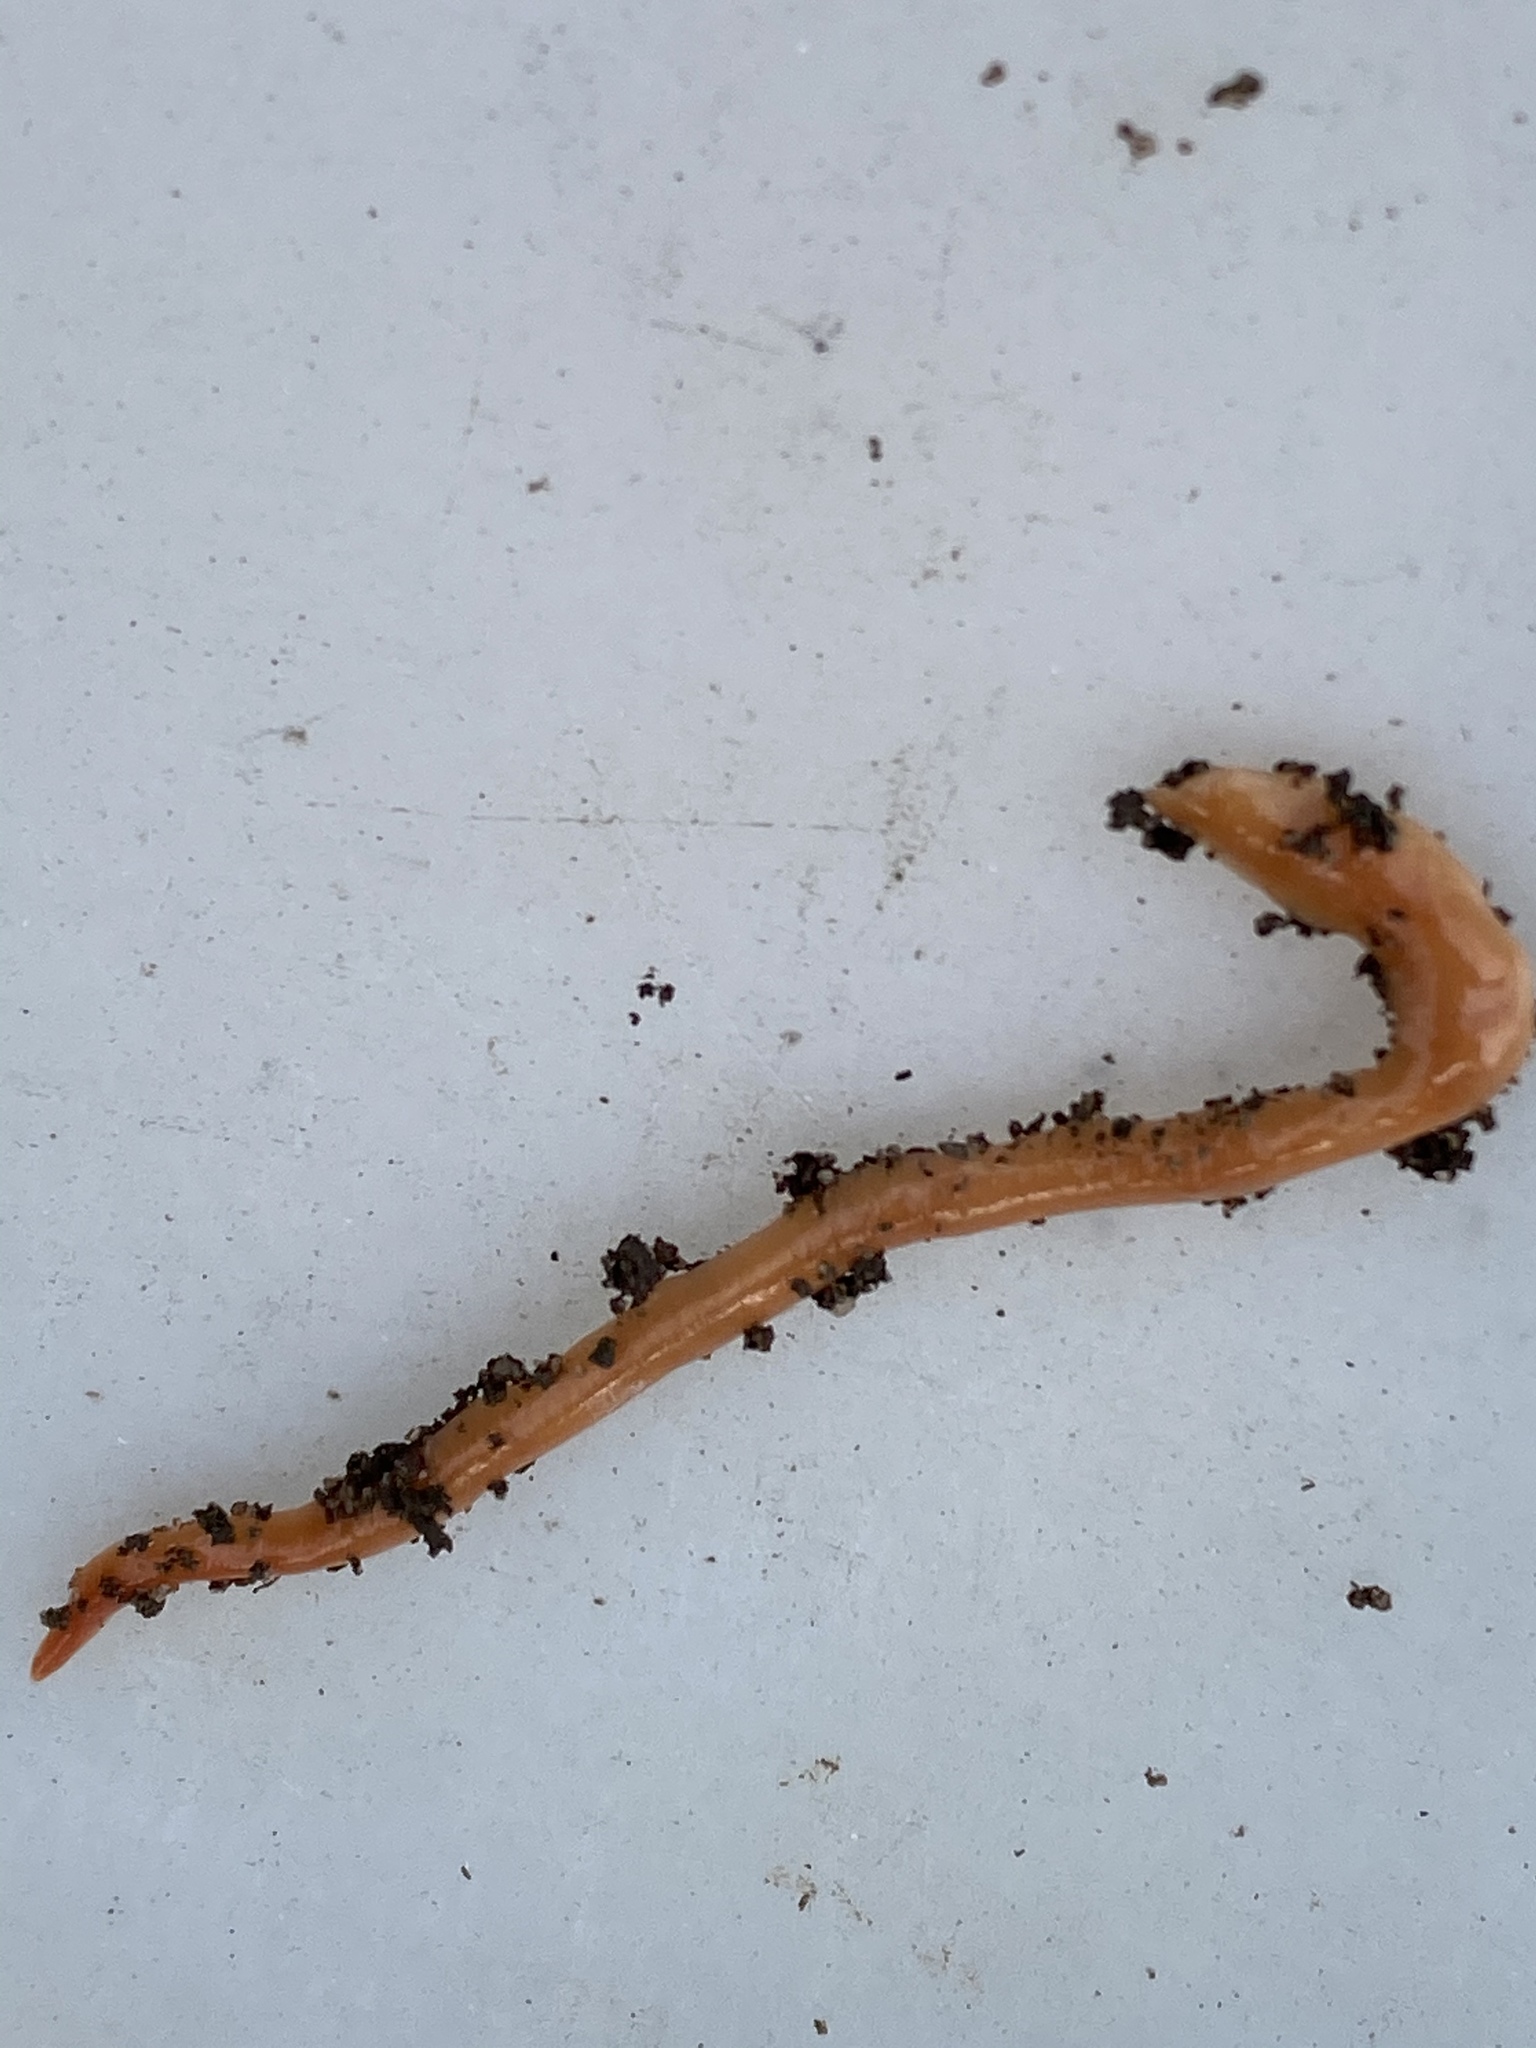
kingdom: Animalia
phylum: Platyhelminthes
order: Tricladida
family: Geoplanidae
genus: Australoplana
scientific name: Australoplana sanguinea
